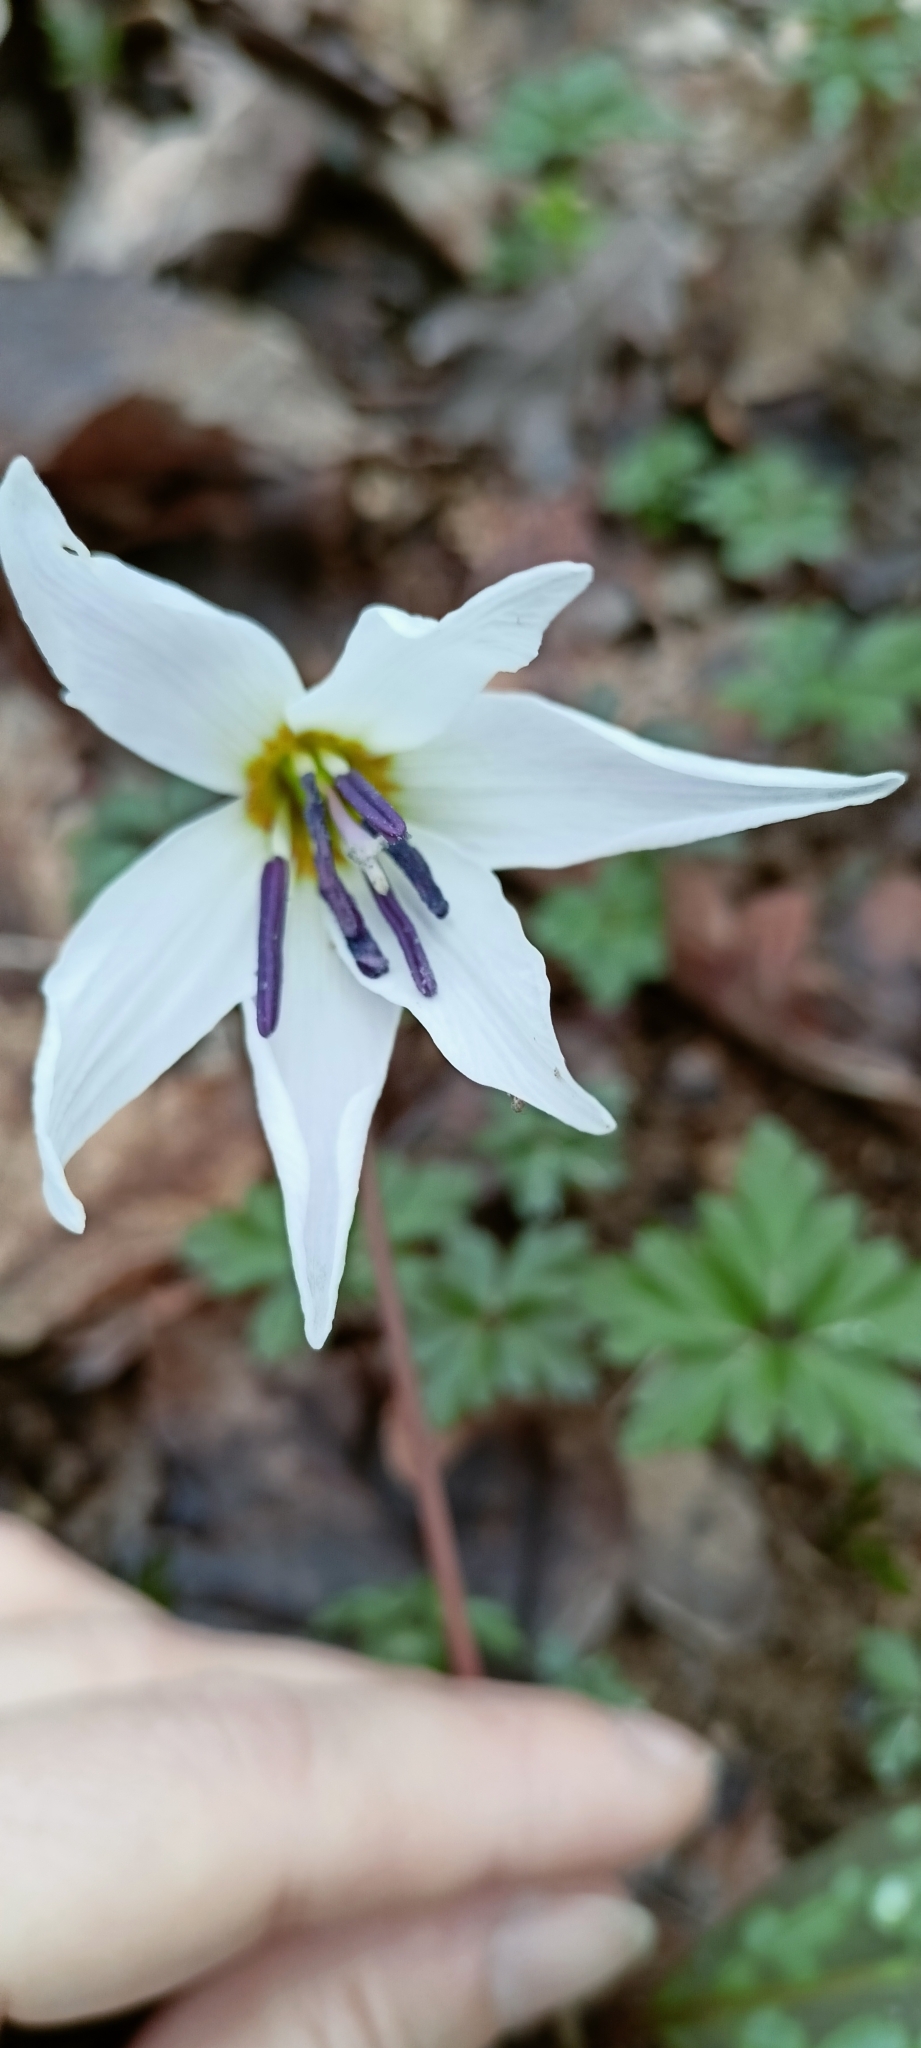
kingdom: Plantae
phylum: Tracheophyta
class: Liliopsida
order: Liliales
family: Liliaceae
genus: Erythronium
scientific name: Erythronium dens-canis
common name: Dog's-tooth-violet
